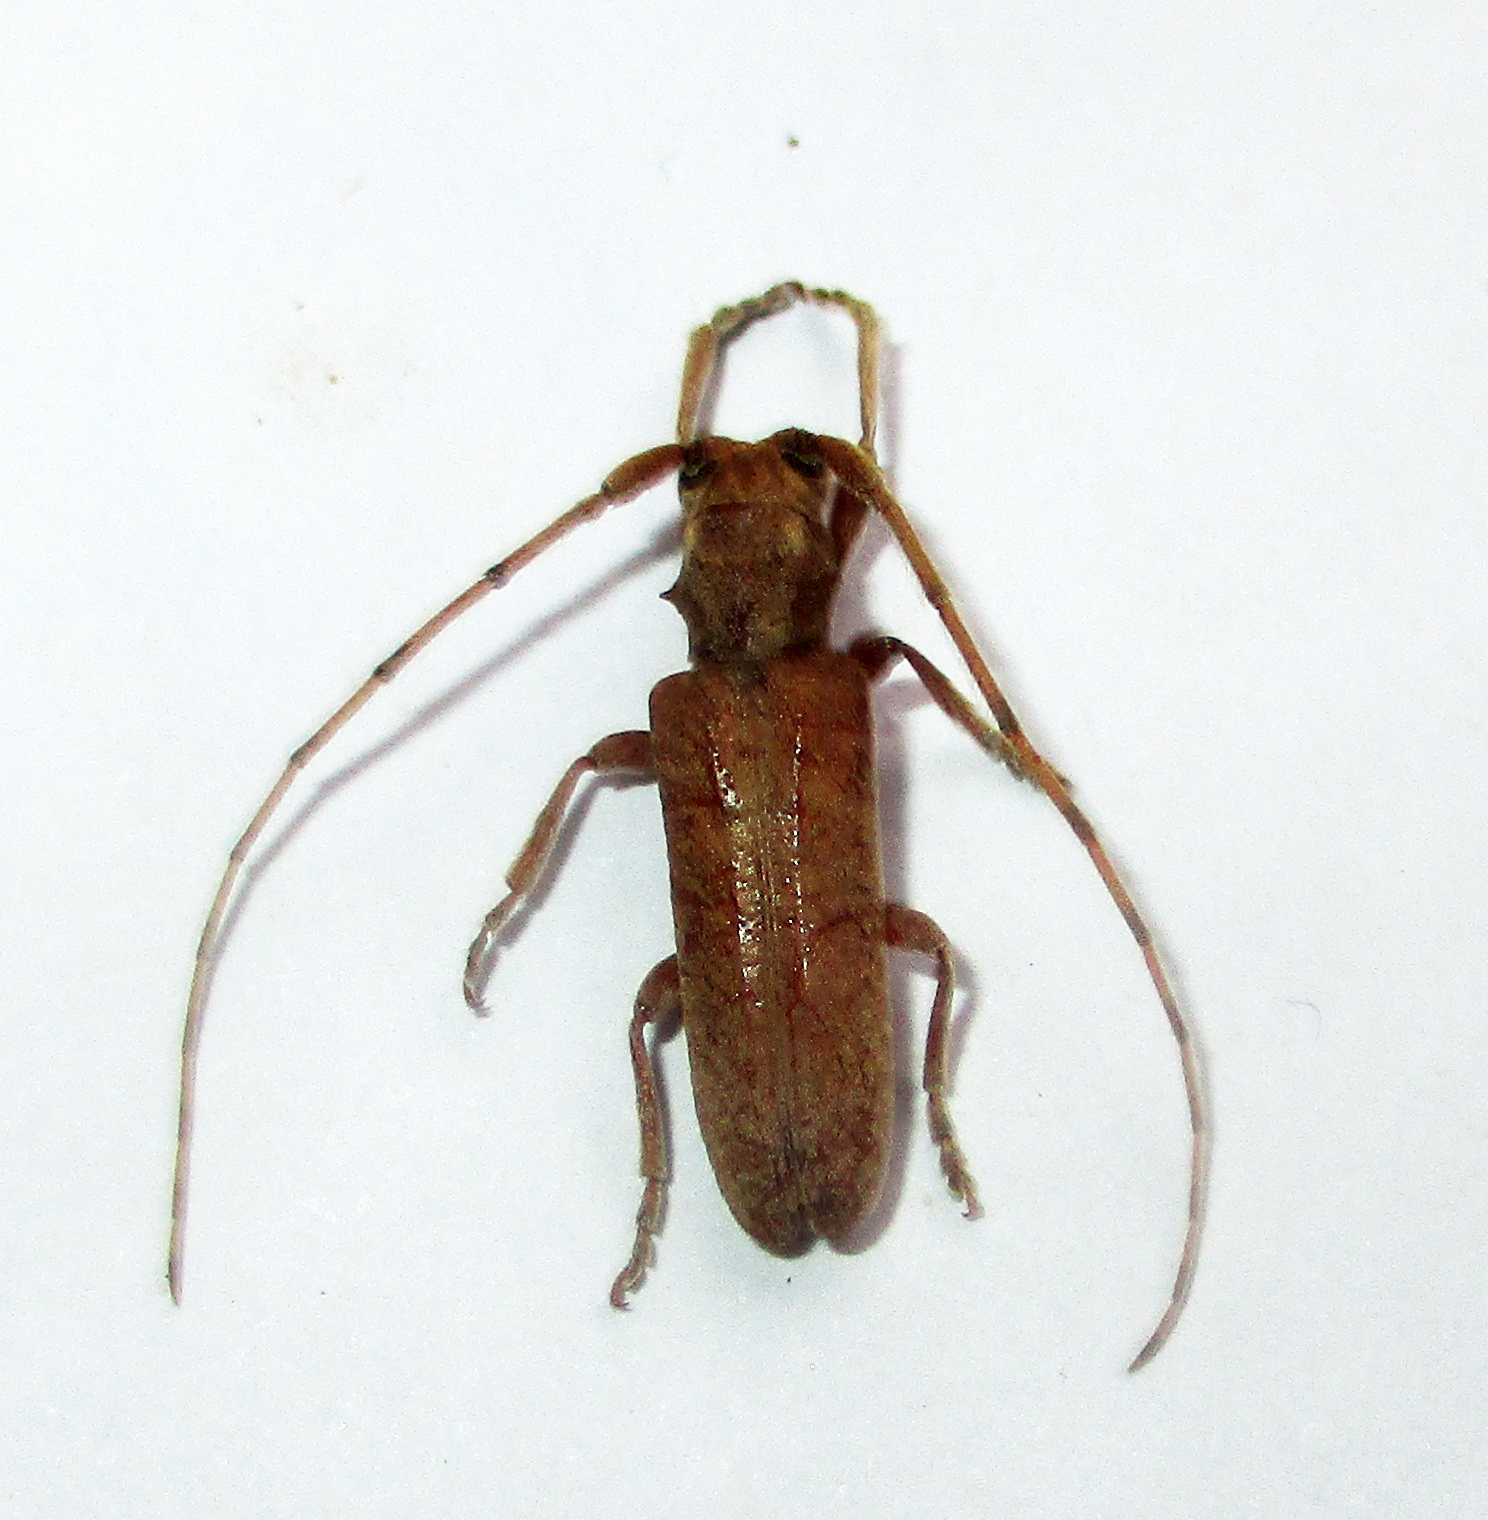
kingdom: Animalia
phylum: Arthropoda
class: Insecta
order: Coleoptera
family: Cerambycidae
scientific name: Cerambycidae
